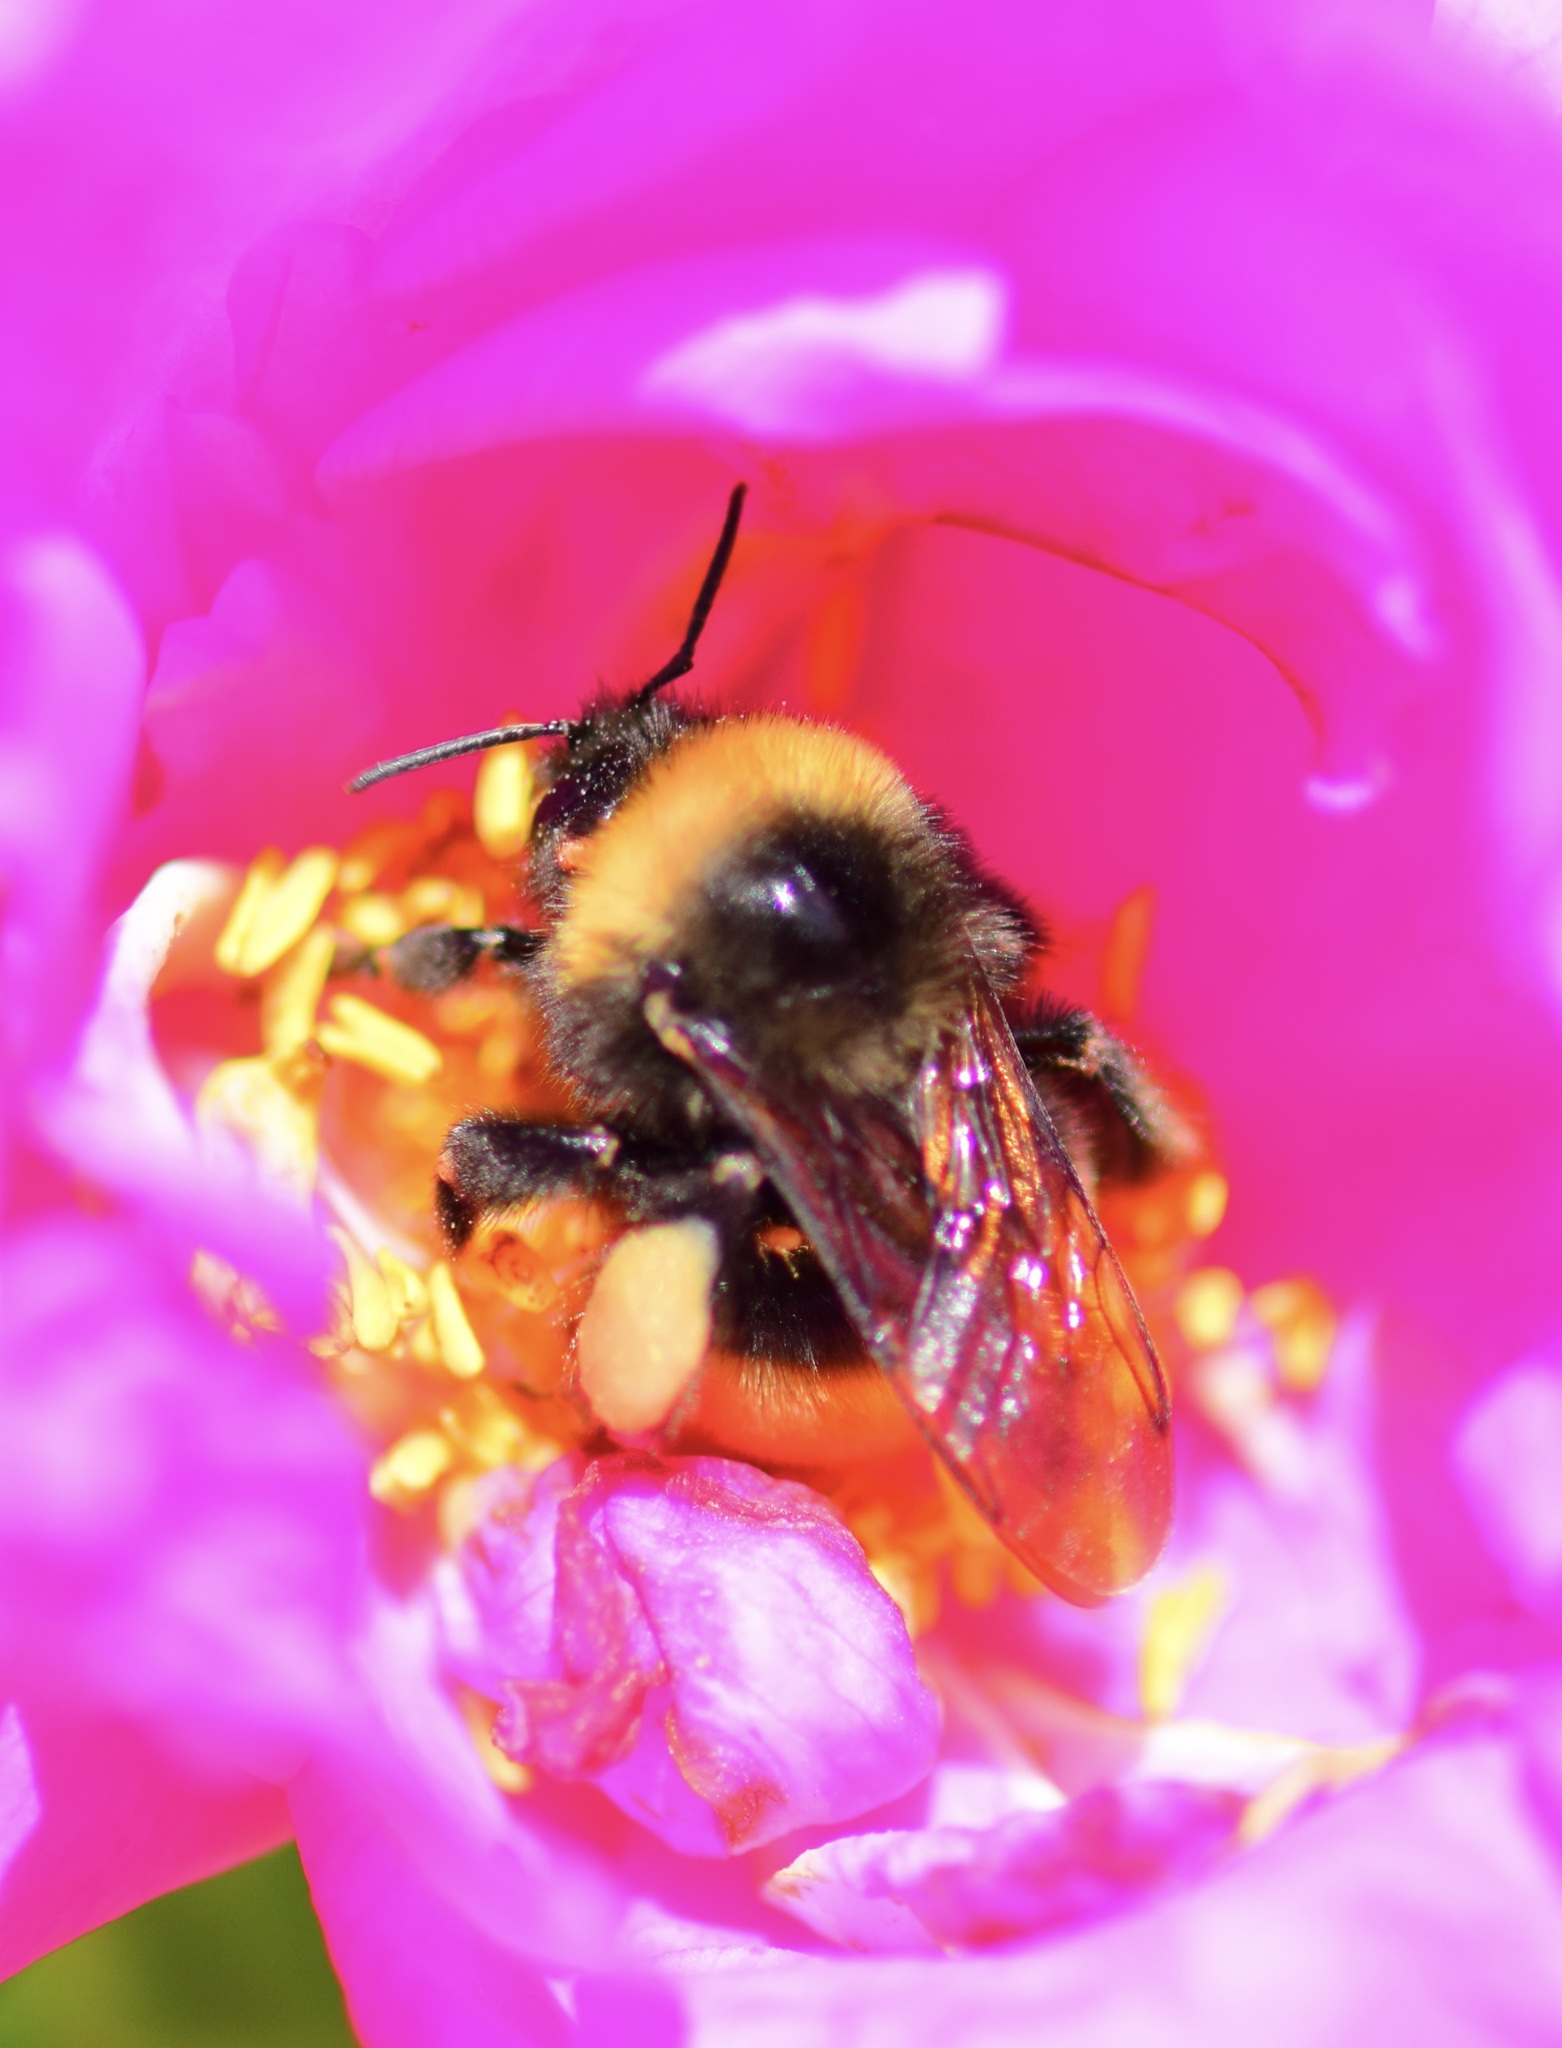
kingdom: Animalia
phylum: Arthropoda
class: Insecta
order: Hymenoptera
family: Apidae
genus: Bombus
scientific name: Bombus terricola
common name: Yellow-banded bumble bee
